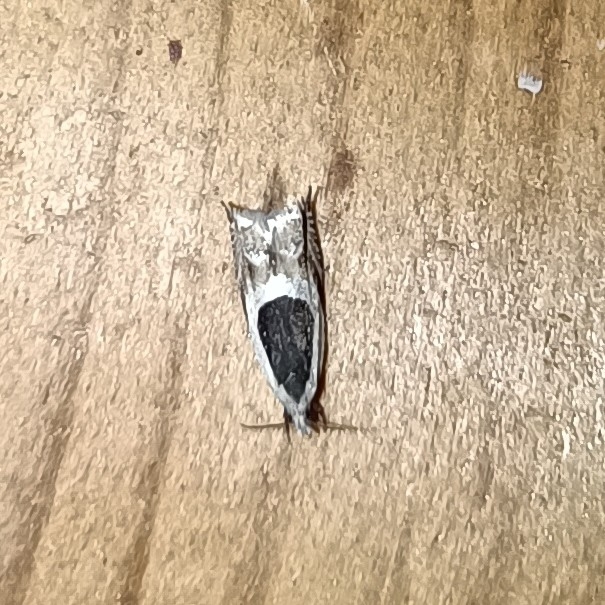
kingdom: Animalia
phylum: Arthropoda
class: Insecta
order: Lepidoptera
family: Tortricidae
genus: Ancylis
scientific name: Ancylis badiana
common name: Common roller
